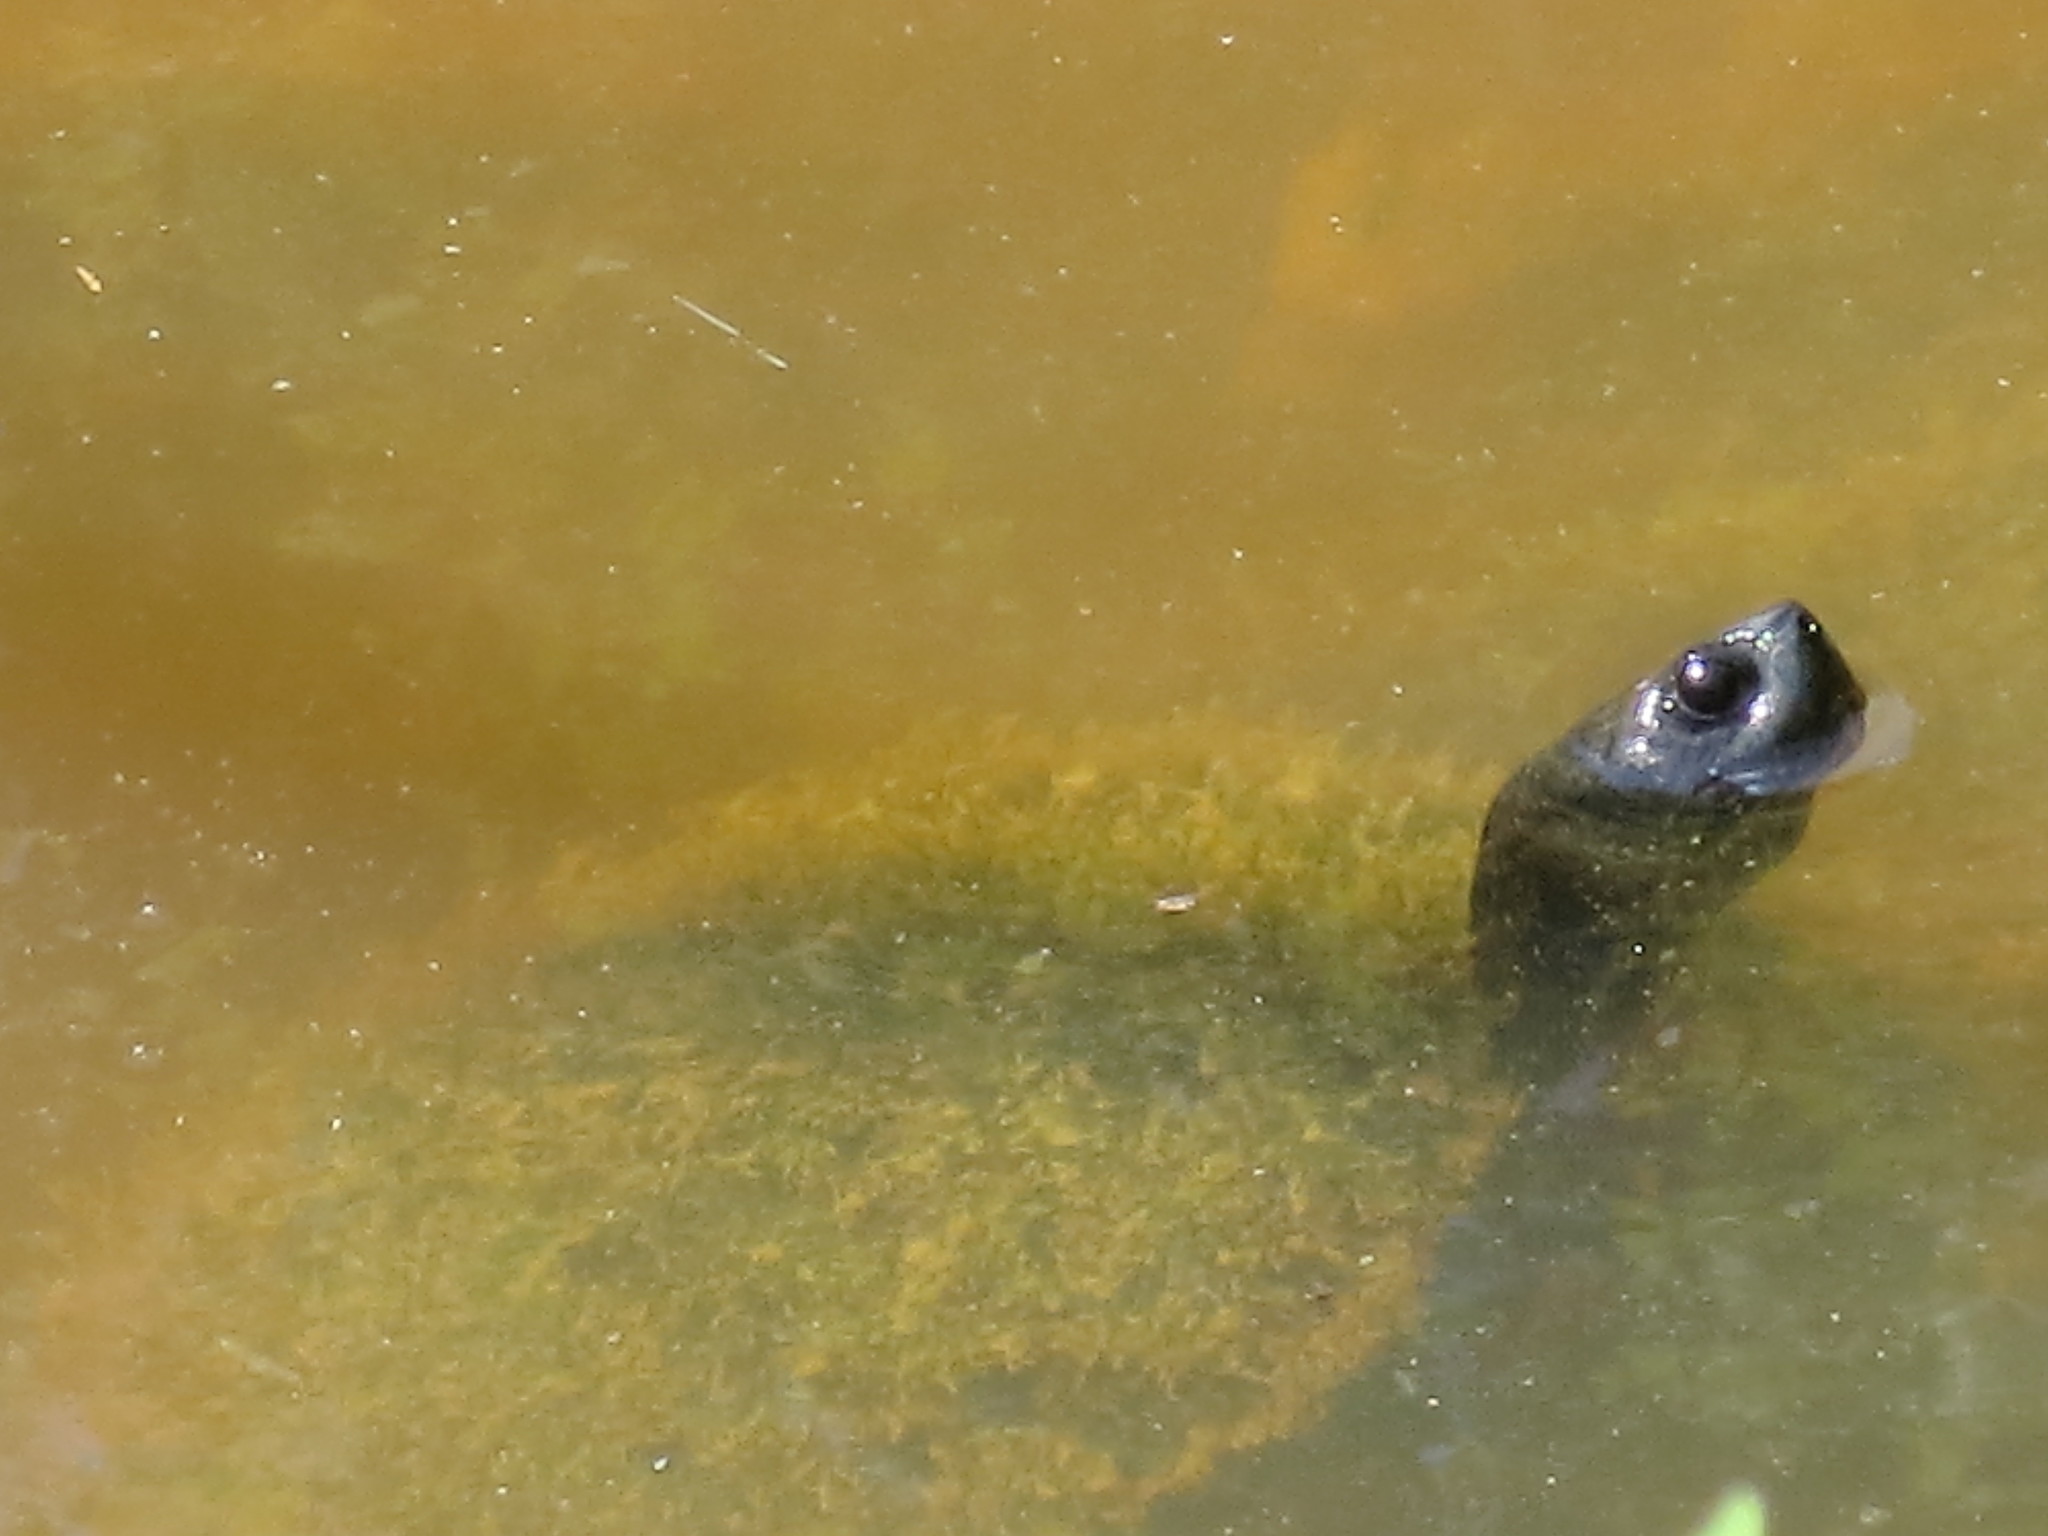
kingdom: Animalia
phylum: Chordata
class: Testudines
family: Emydidae
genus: Trachemys
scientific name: Trachemys scripta
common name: Slider
